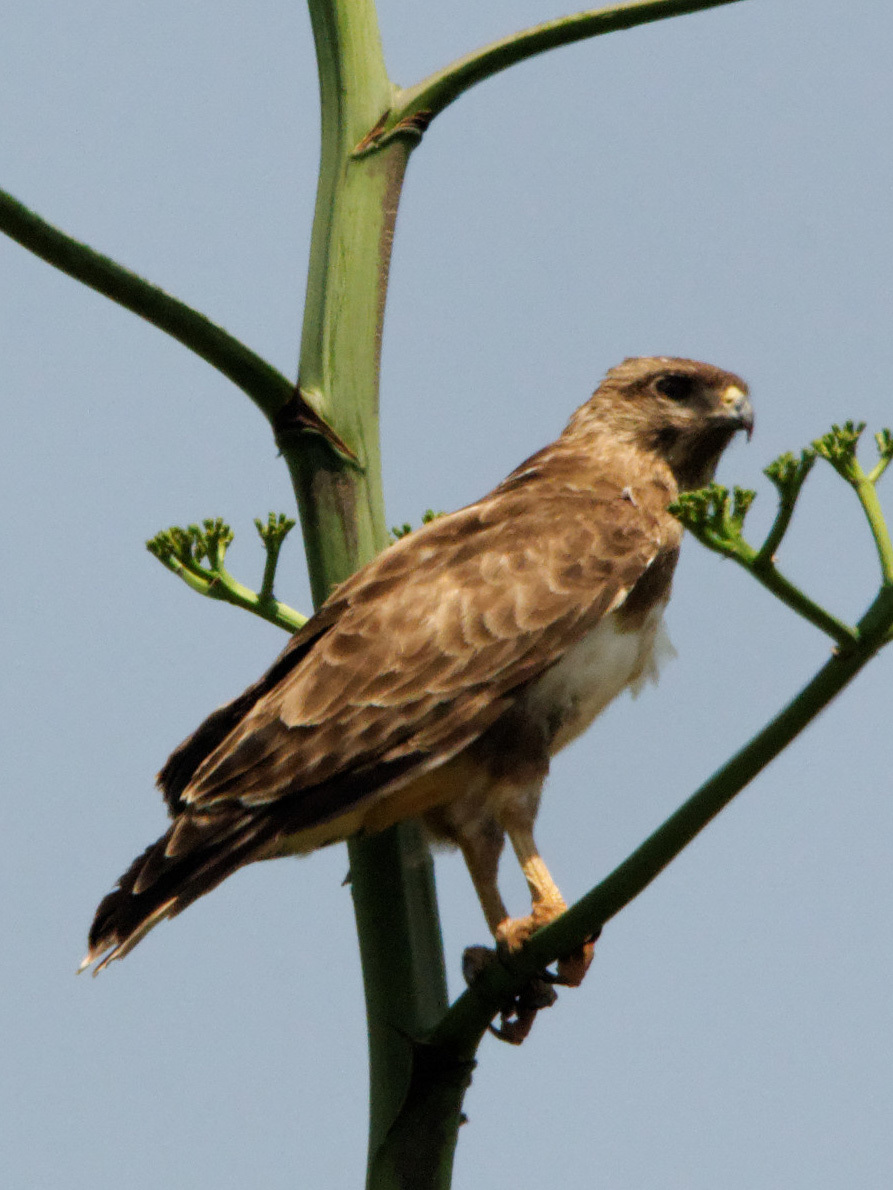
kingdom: Animalia
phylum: Chordata
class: Aves
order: Accipitriformes
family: Accipitridae
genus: Buteo
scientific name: Buteo brachypterus
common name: Madagascar buzzard
